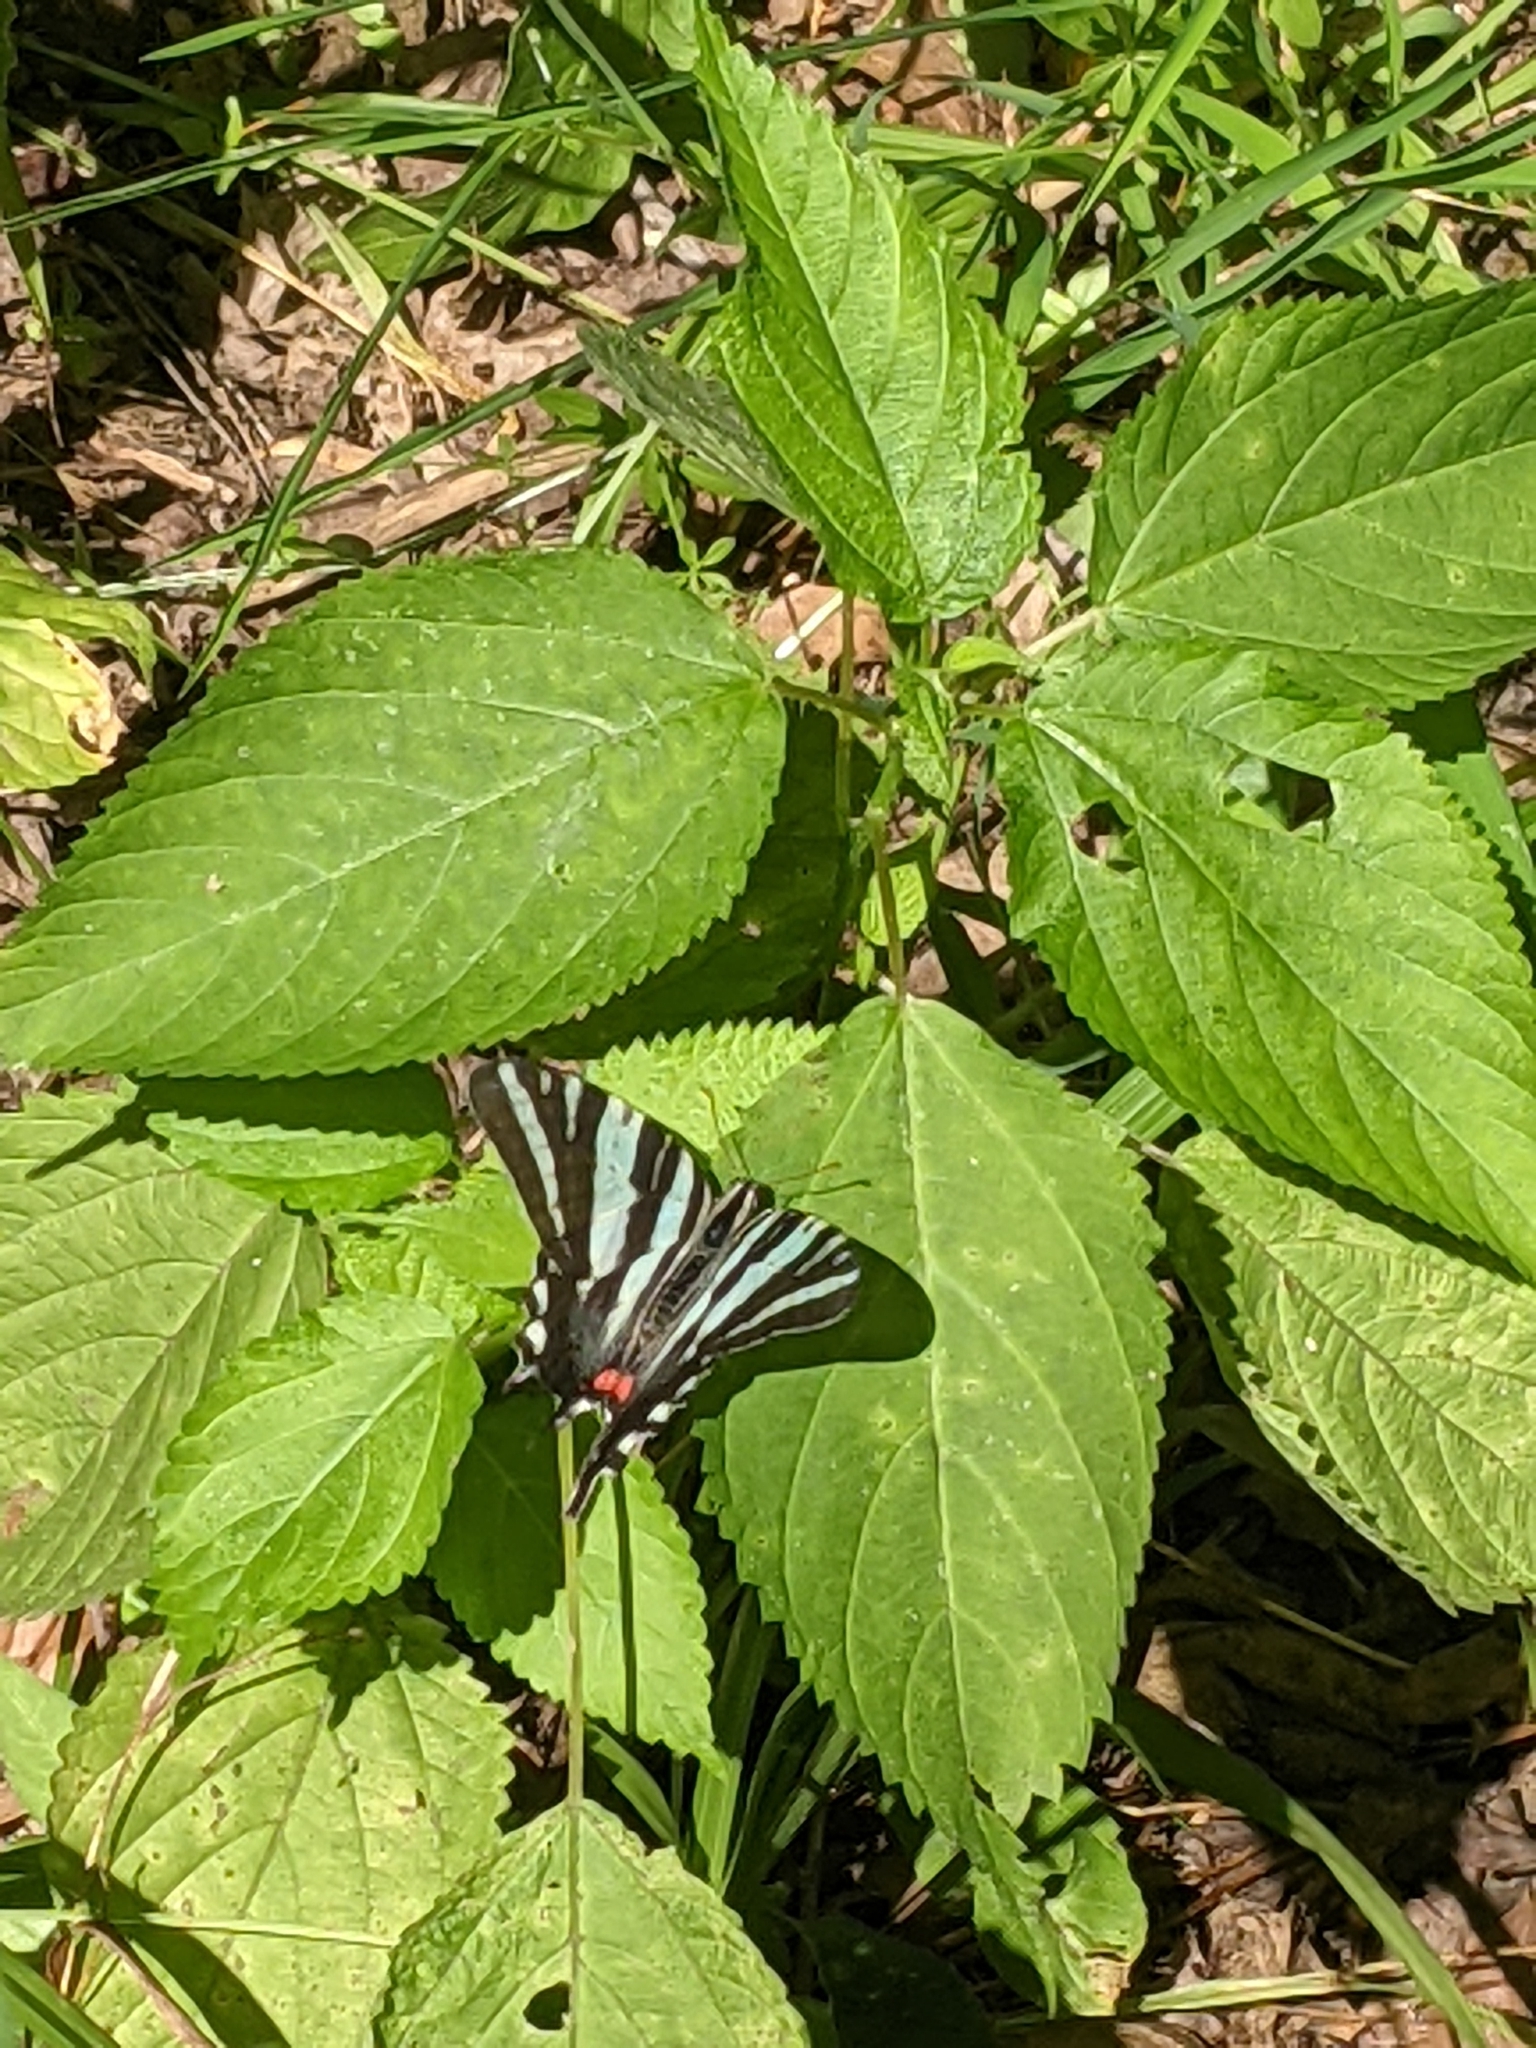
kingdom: Animalia
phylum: Arthropoda
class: Insecta
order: Lepidoptera
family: Papilionidae
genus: Protographium
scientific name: Protographium marcellus
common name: Zebra swallowtail
